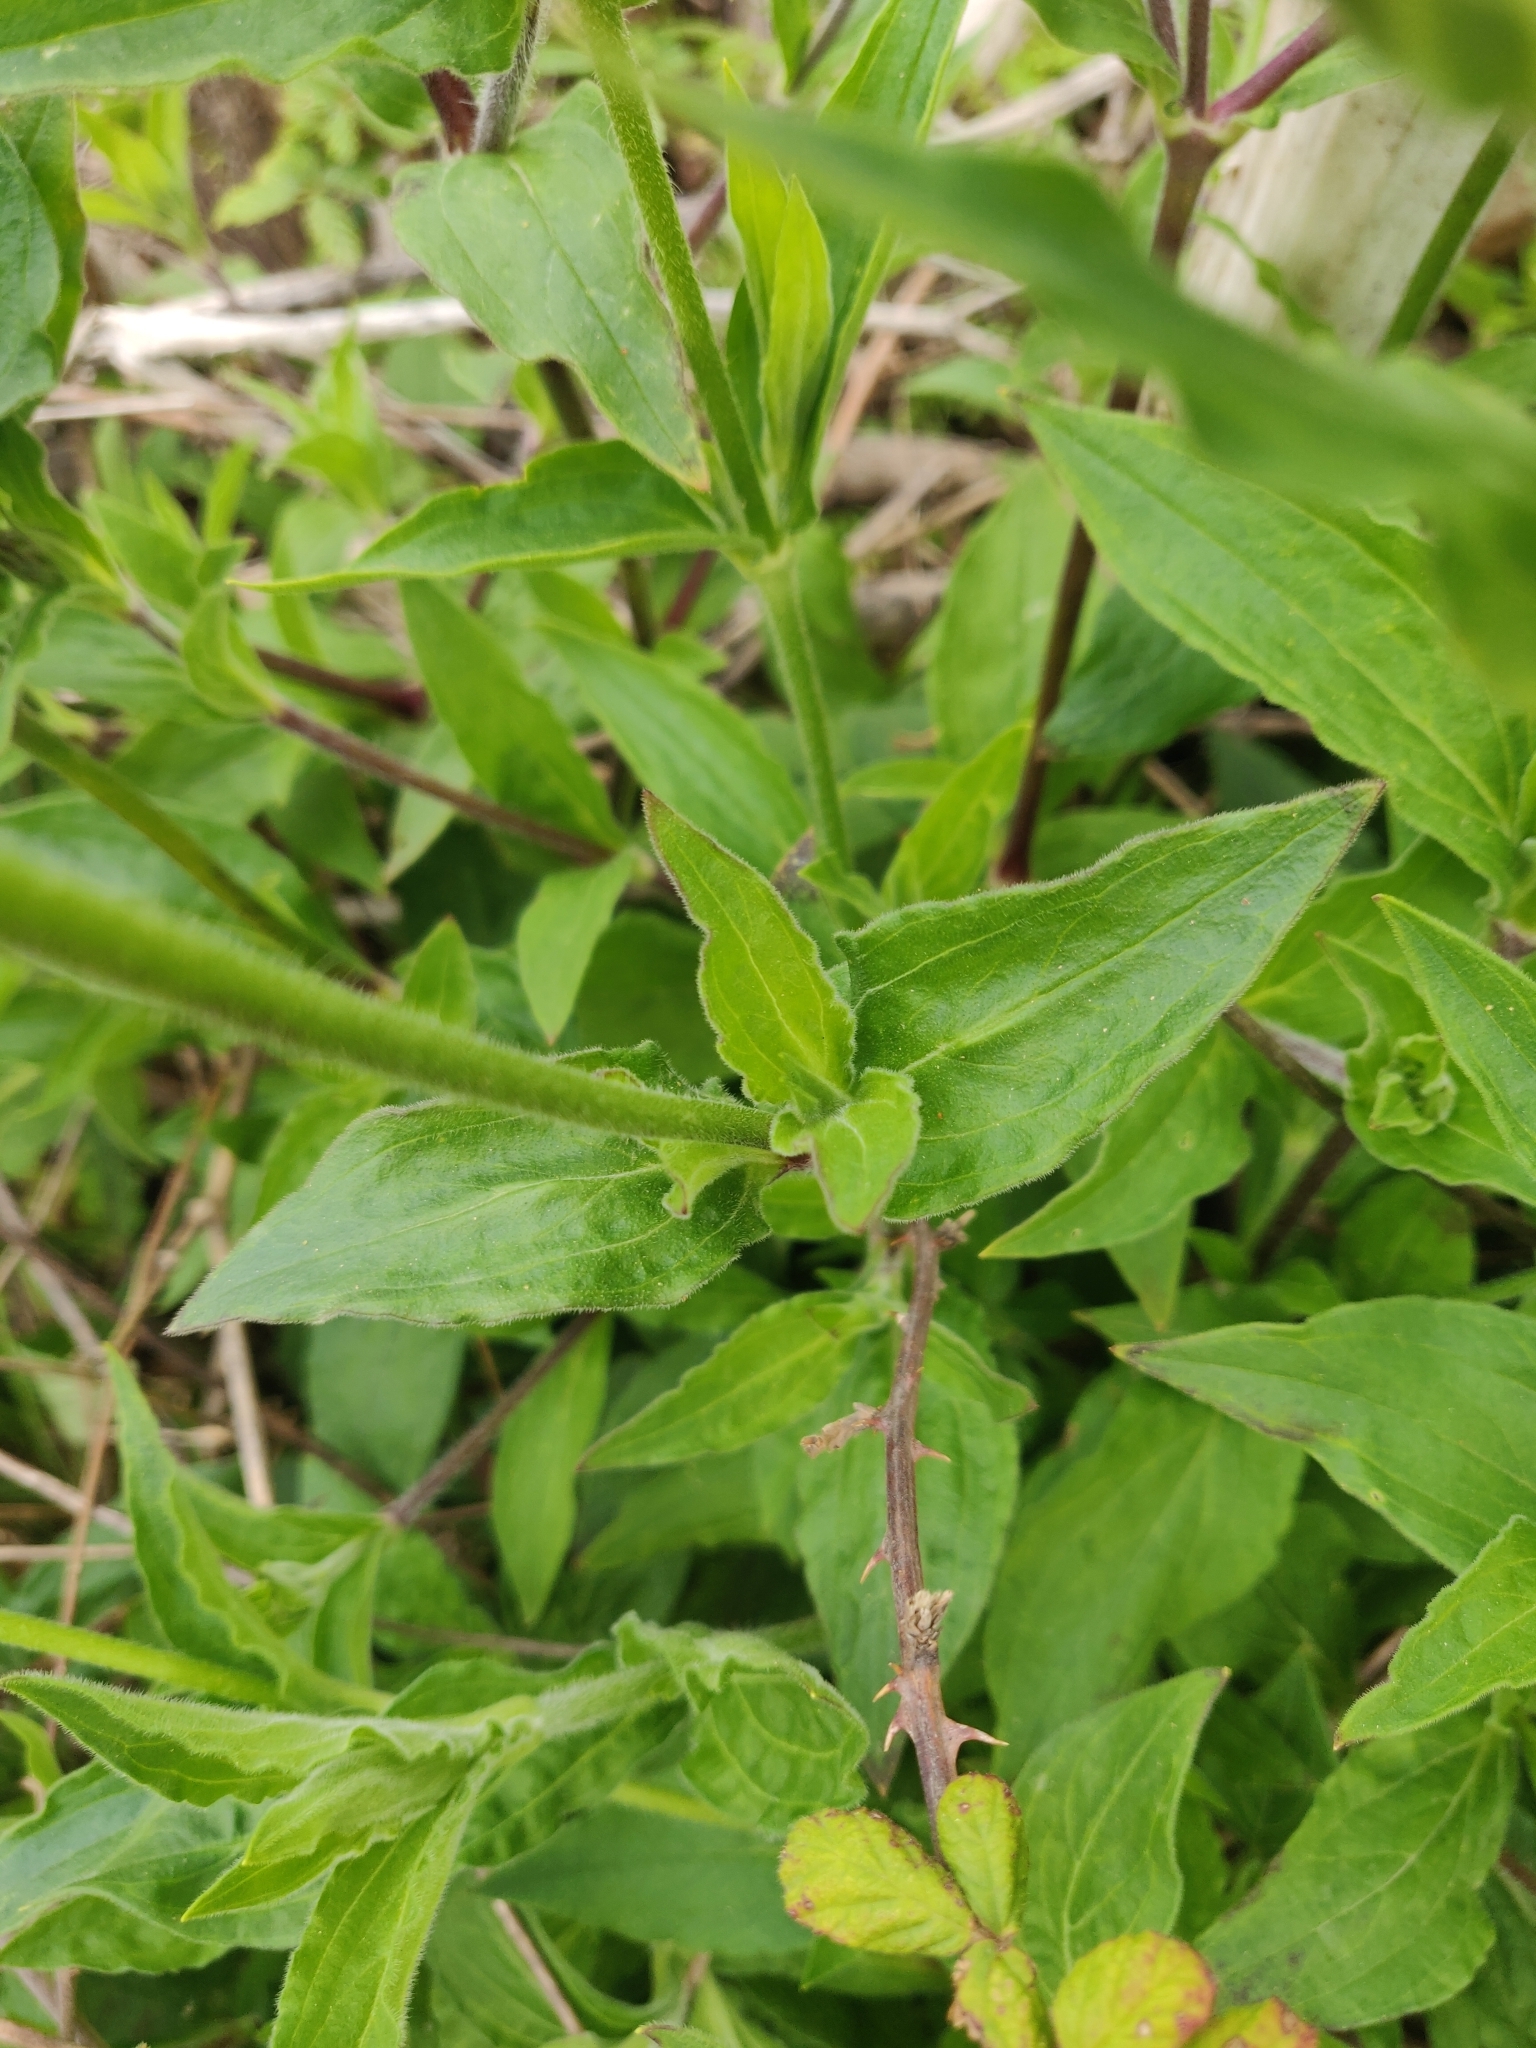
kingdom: Plantae
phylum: Tracheophyta
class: Magnoliopsida
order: Caryophyllales
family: Caryophyllaceae
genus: Silene
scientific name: Silene latifolia
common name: White campion
